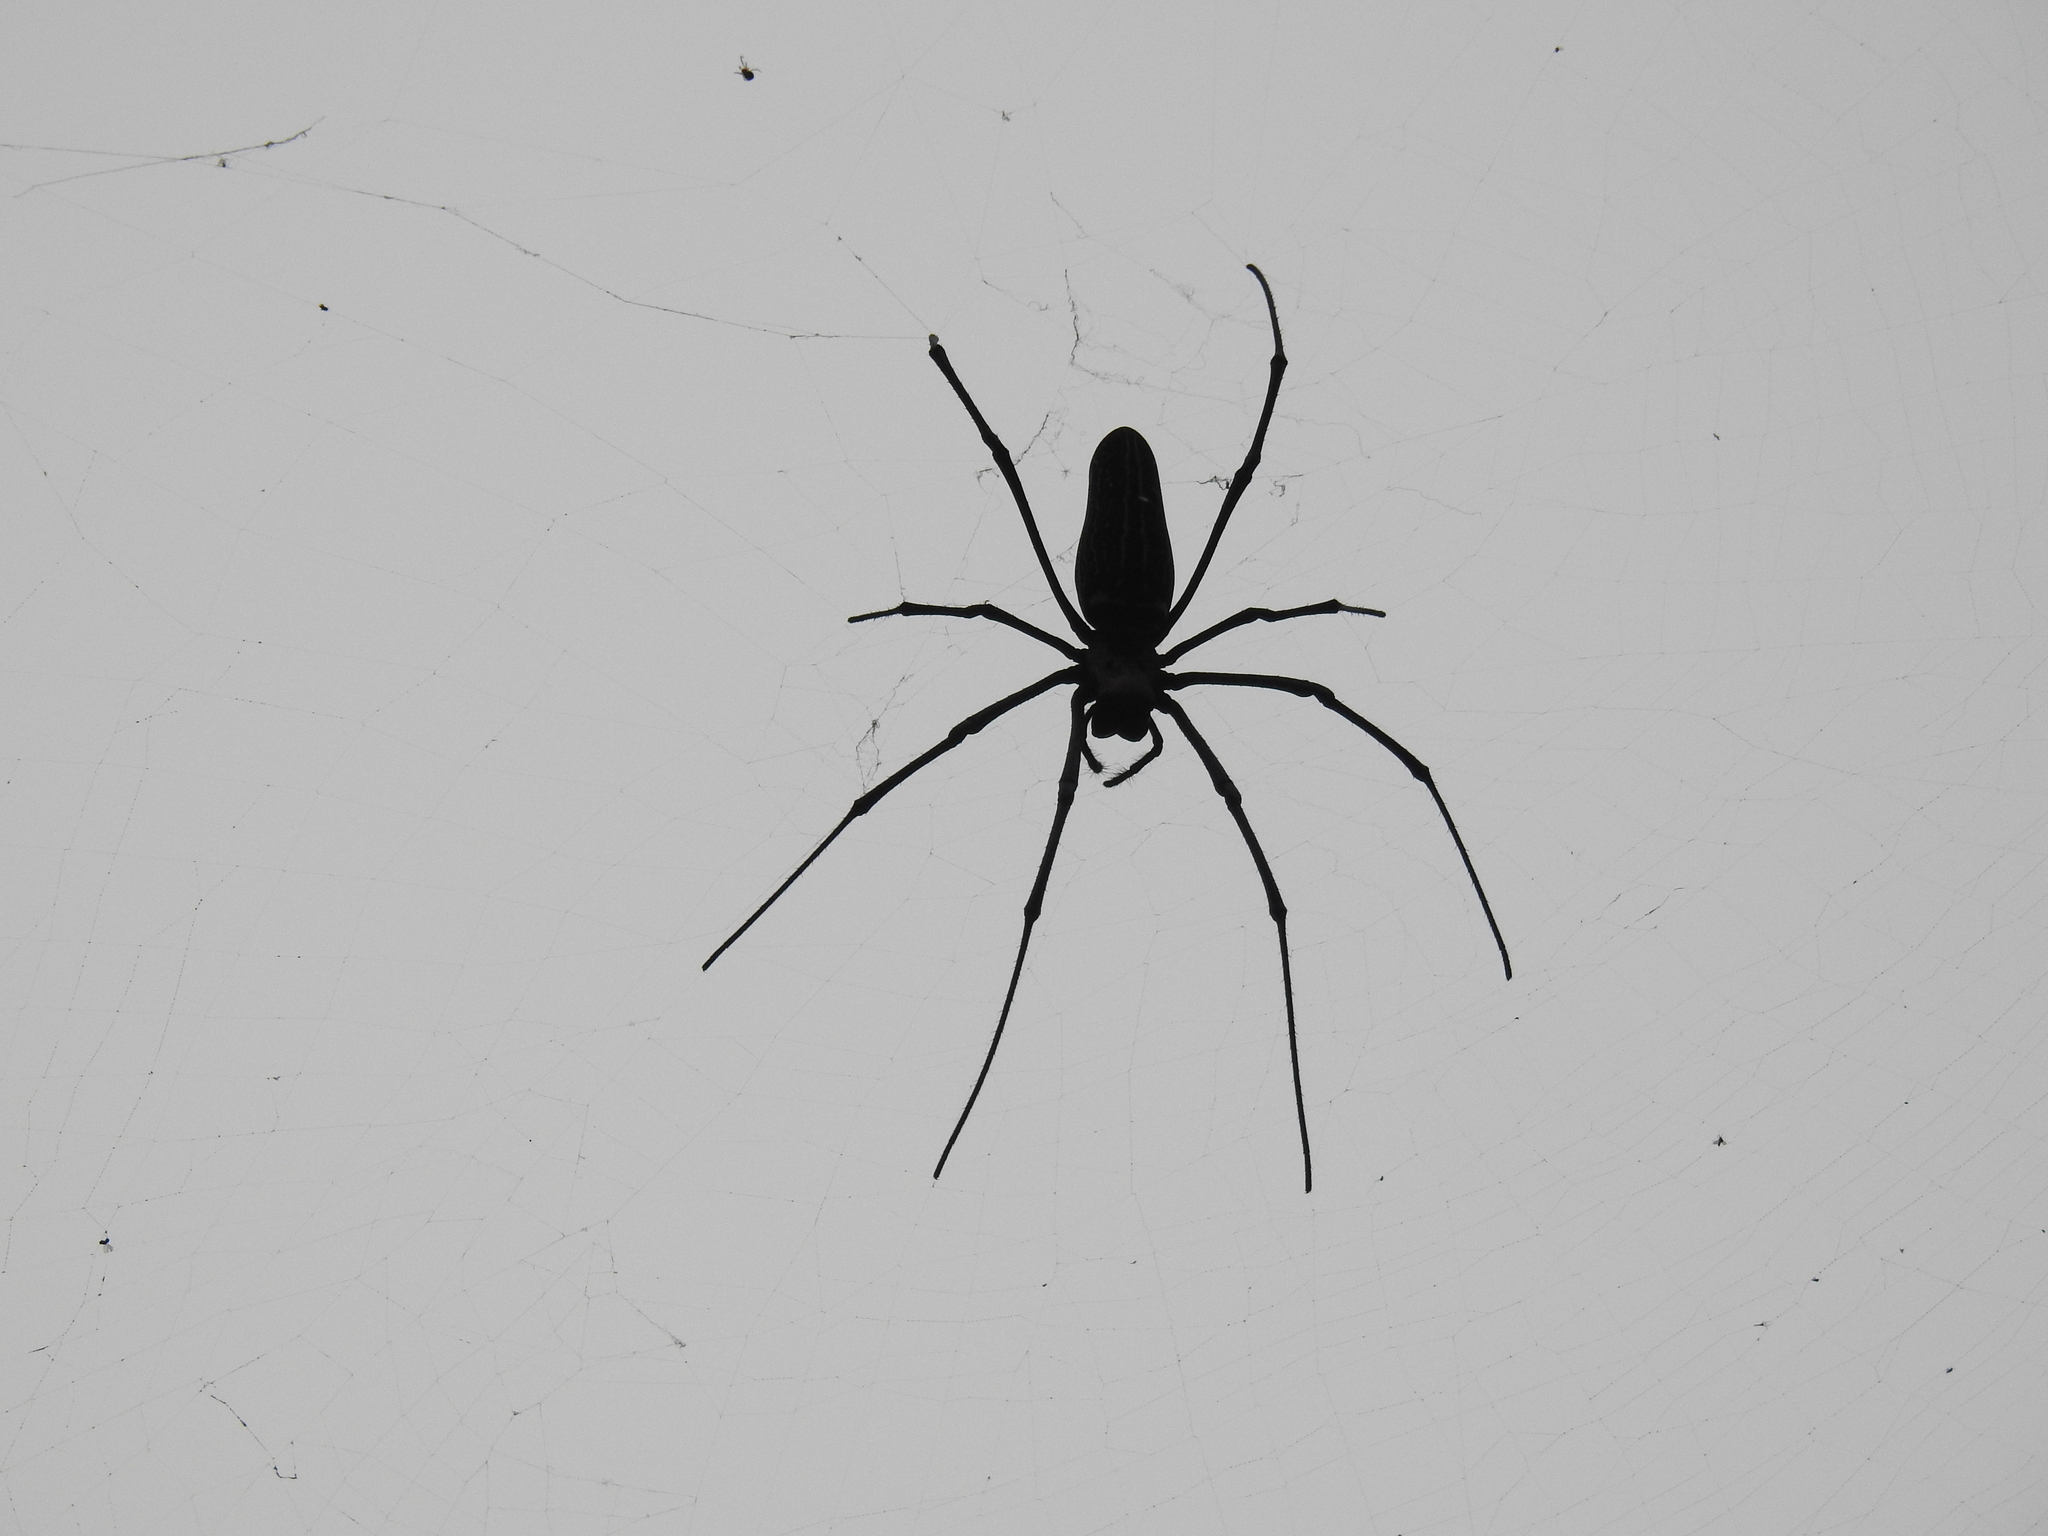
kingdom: Animalia
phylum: Arthropoda
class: Arachnida
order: Araneae
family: Araneidae
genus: Nephila
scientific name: Nephila pilipes
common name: Giant golden orb weaver
